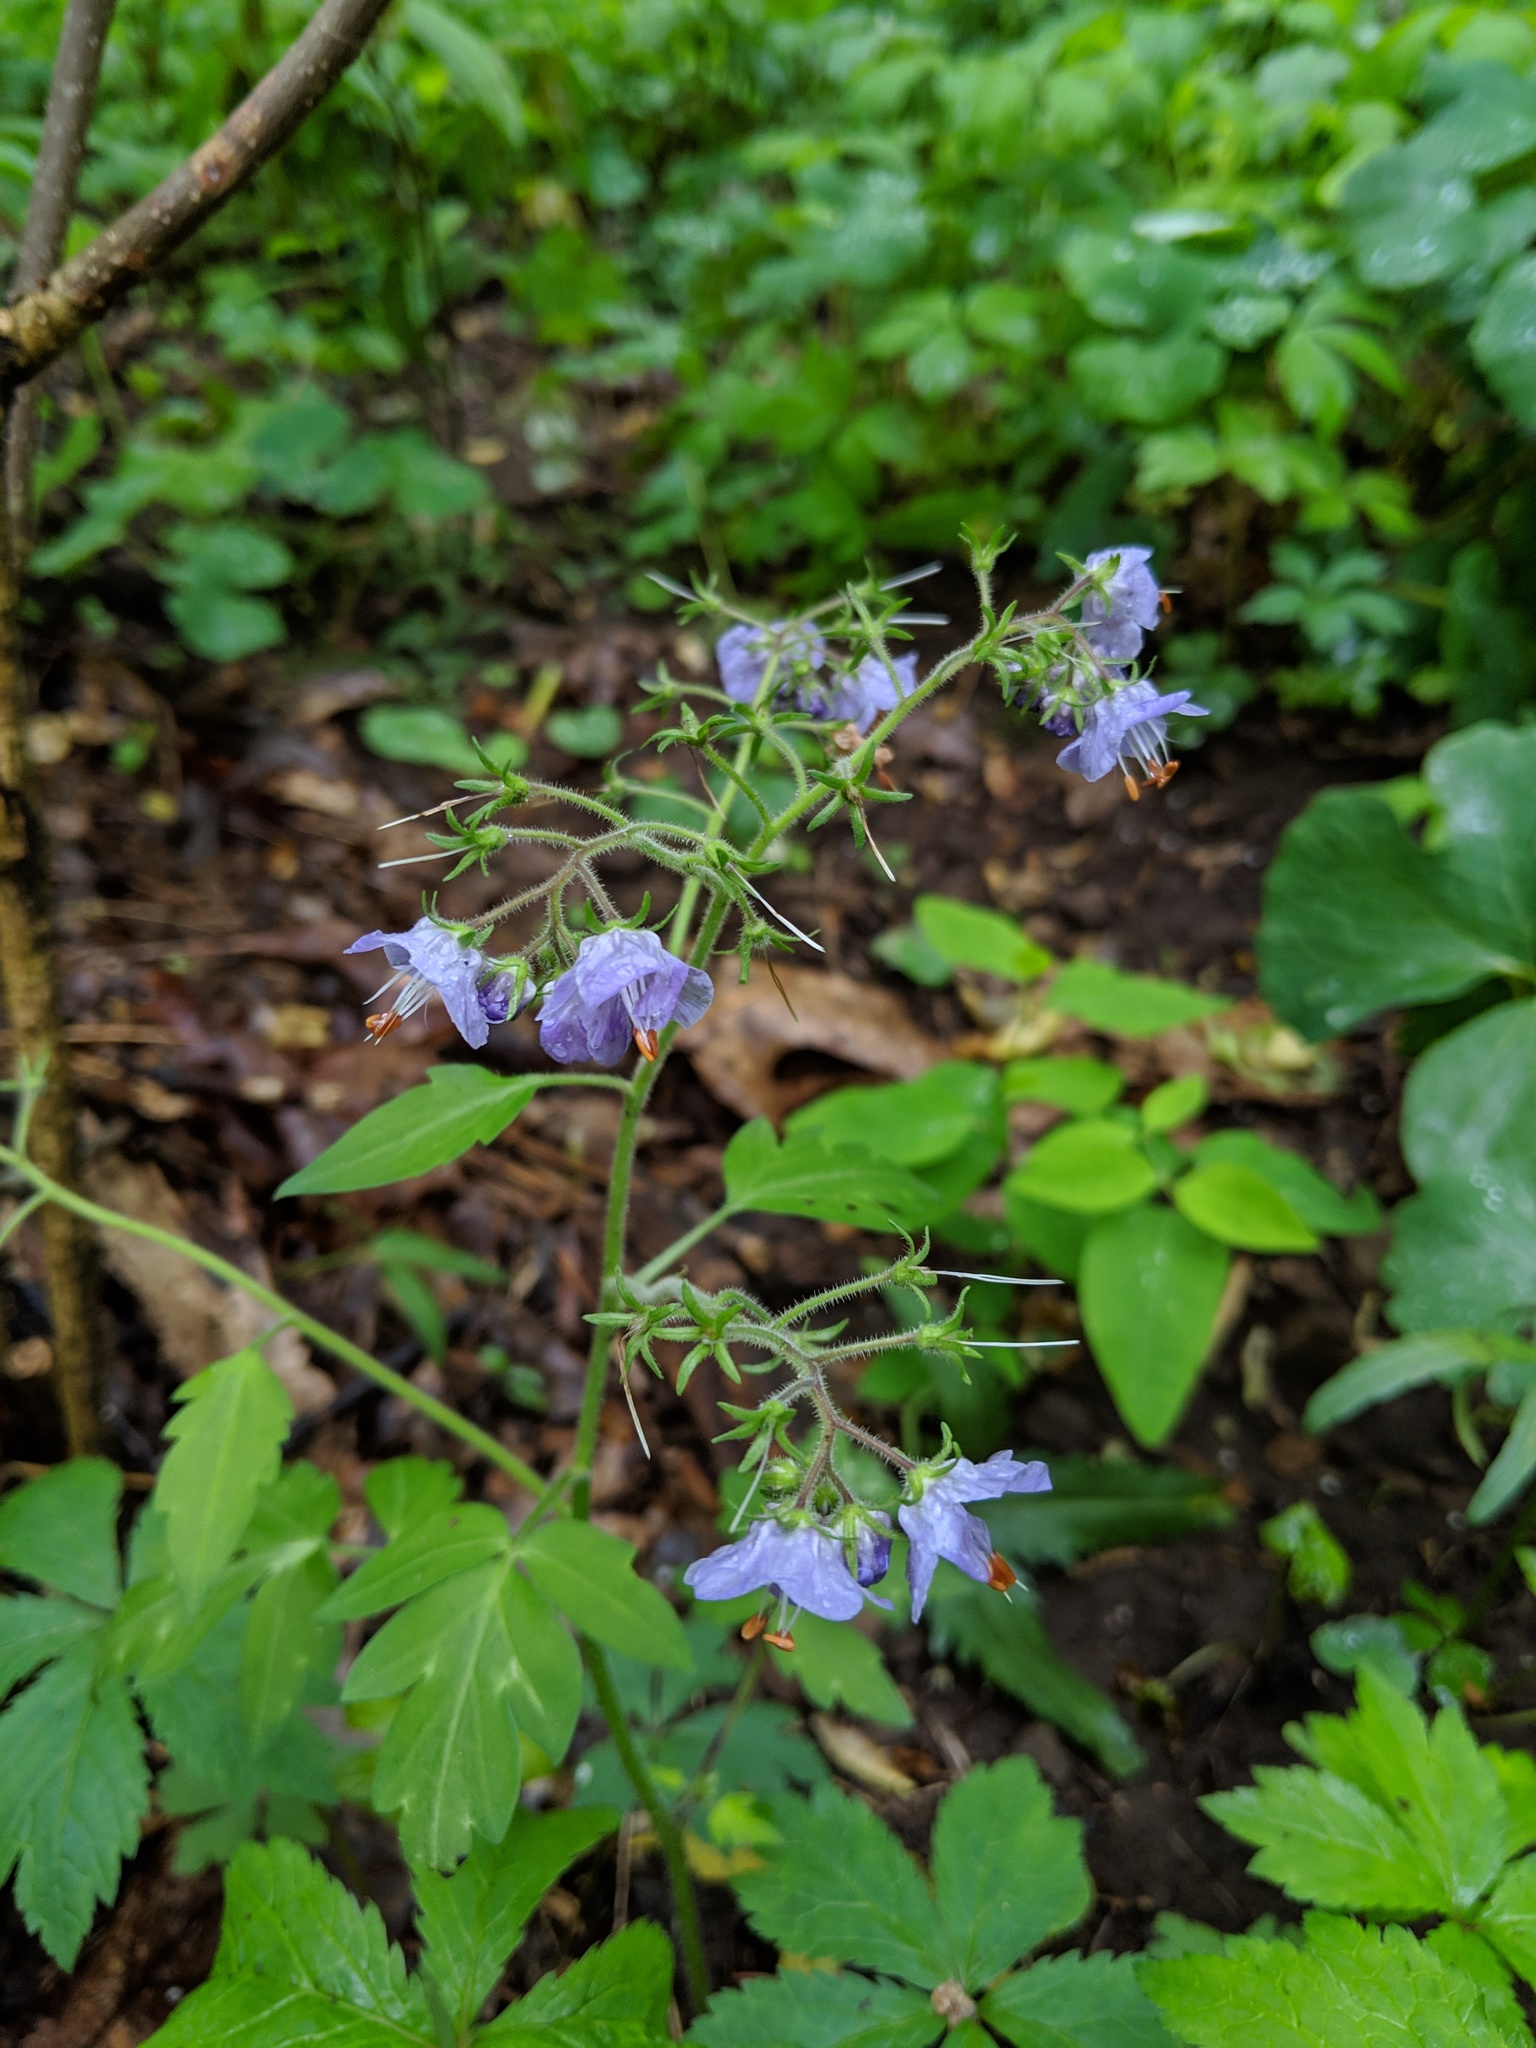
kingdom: Plantae
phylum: Tracheophyta
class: Magnoliopsida
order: Boraginales
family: Hydrophyllaceae
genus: Phacelia
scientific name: Phacelia bipinnatifida
